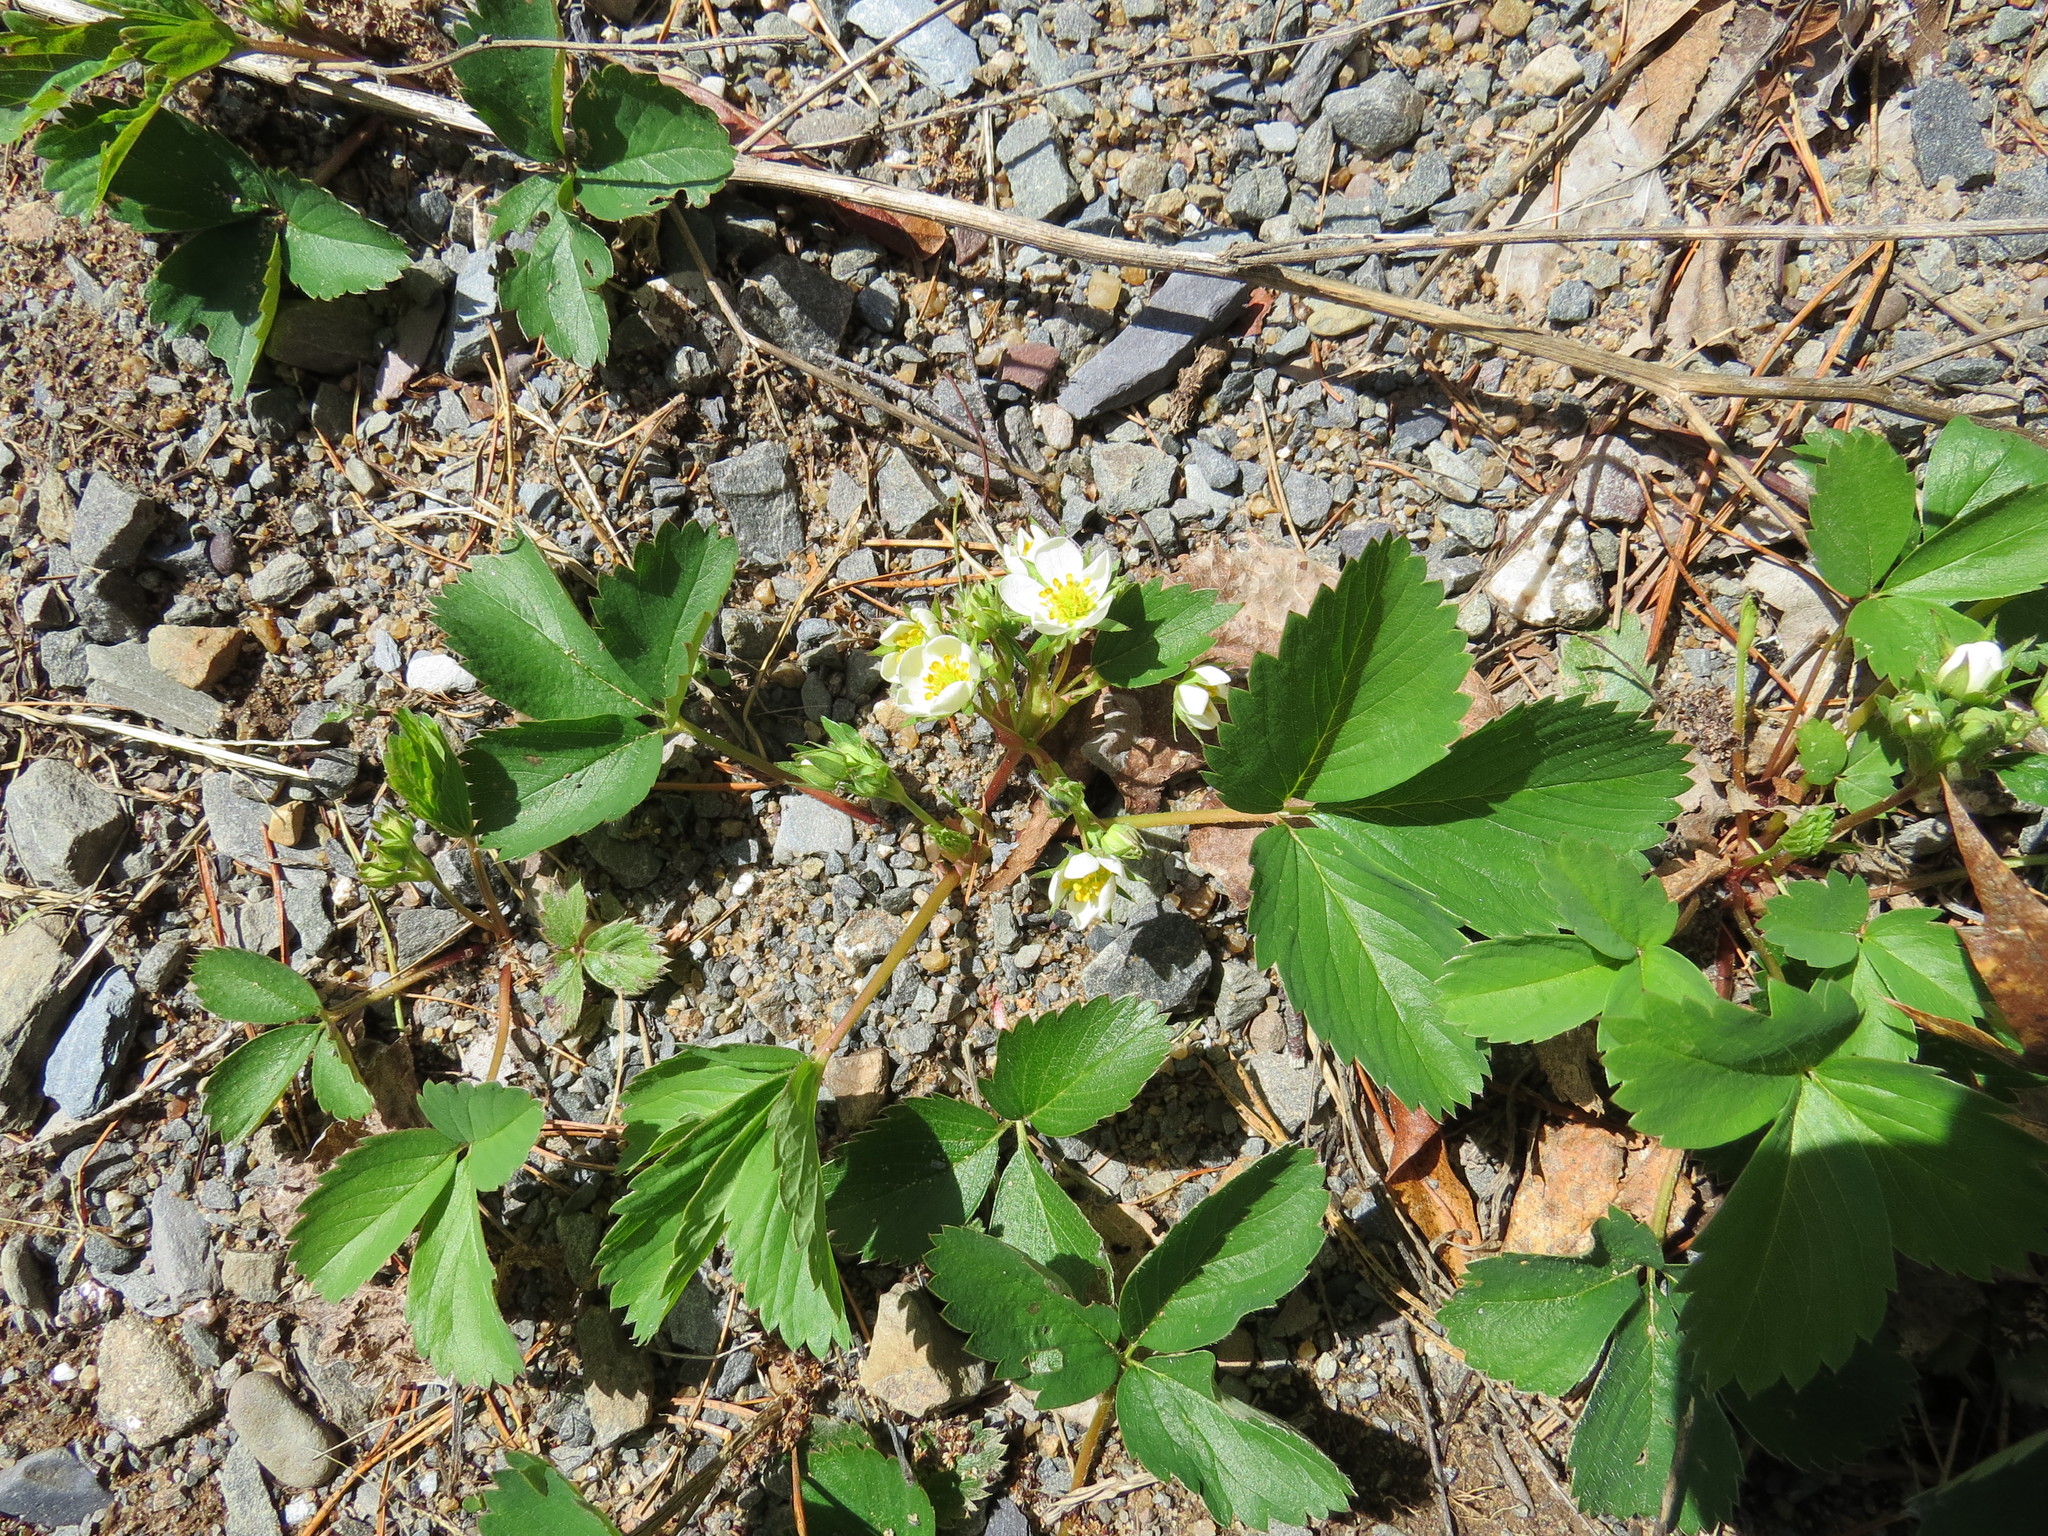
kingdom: Plantae
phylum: Tracheophyta
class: Magnoliopsida
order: Rosales
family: Rosaceae
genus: Fragaria
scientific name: Fragaria virginiana
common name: Thickleaved wild strawberry
